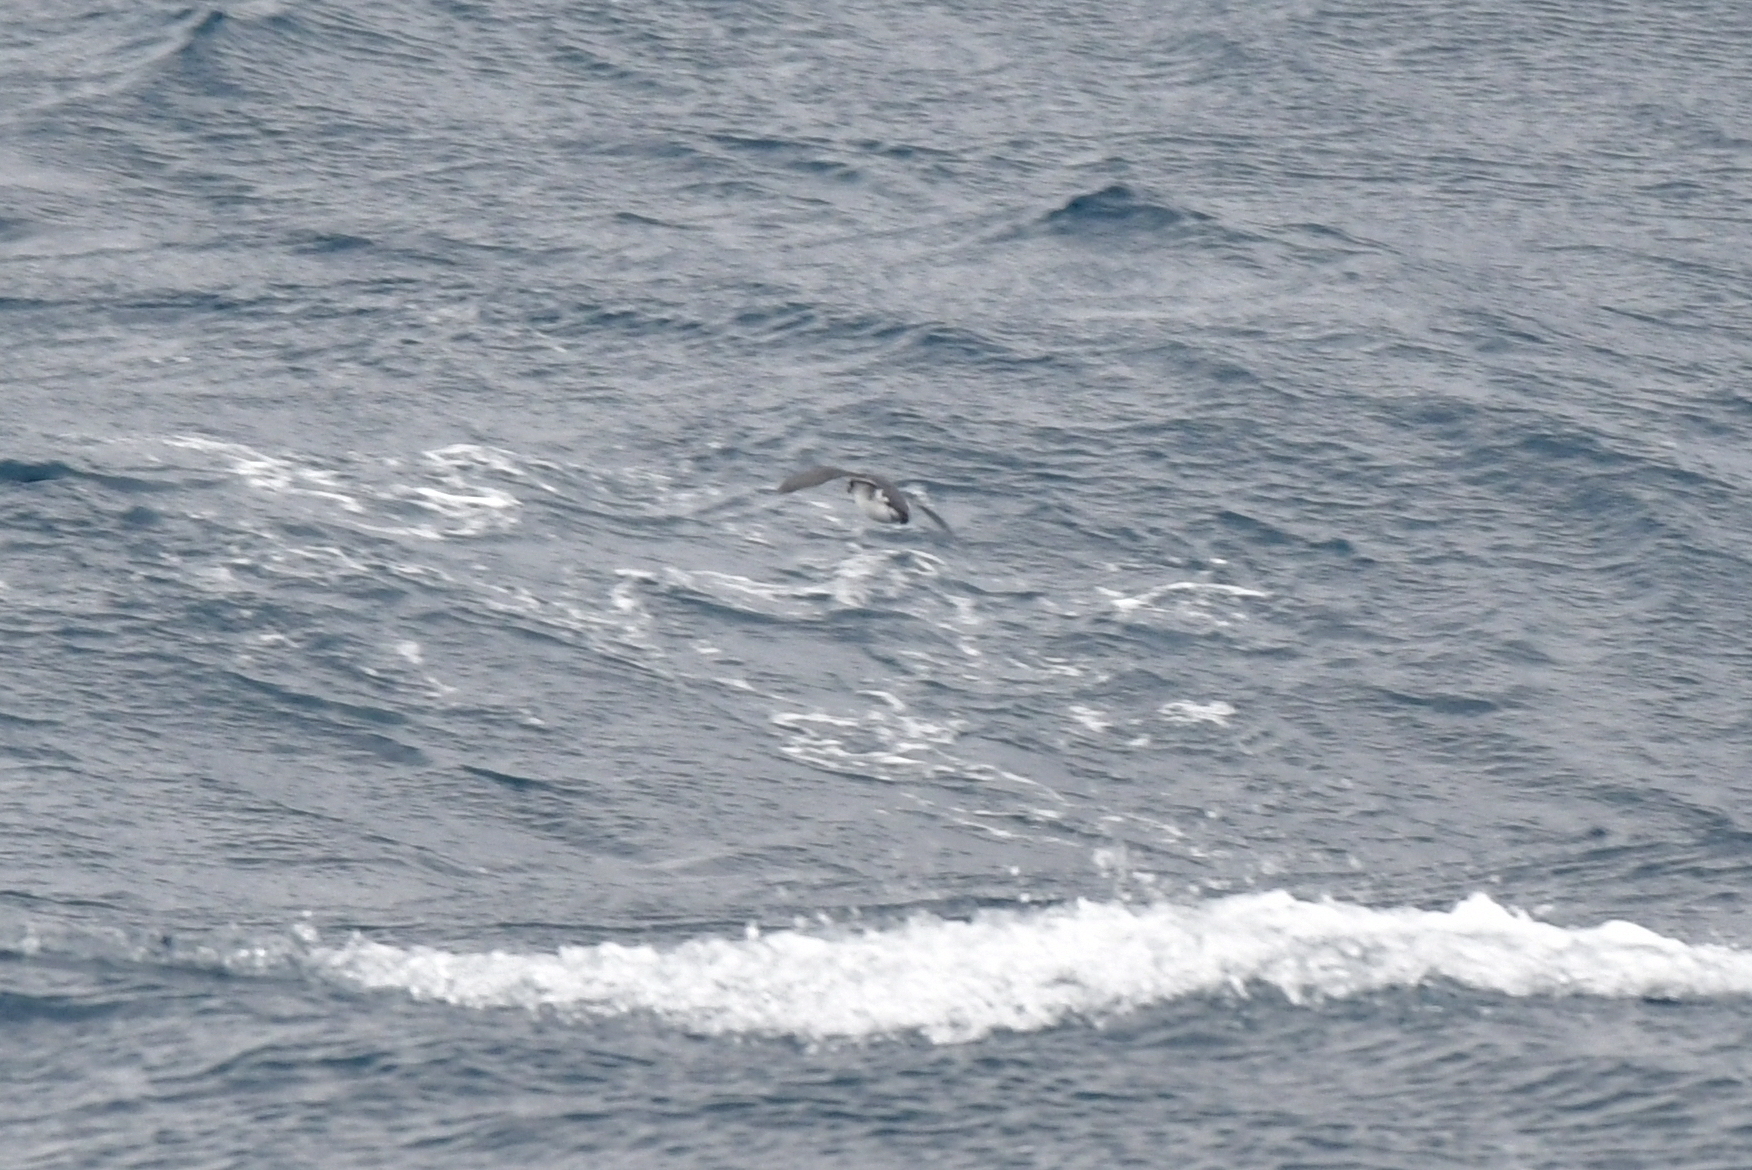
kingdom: Animalia
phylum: Chordata
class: Aves
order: Procellariiformes
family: Pelecanoididae
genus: Pelecanoides
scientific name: Pelecanoides urinatrix
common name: Common diving-petrel
